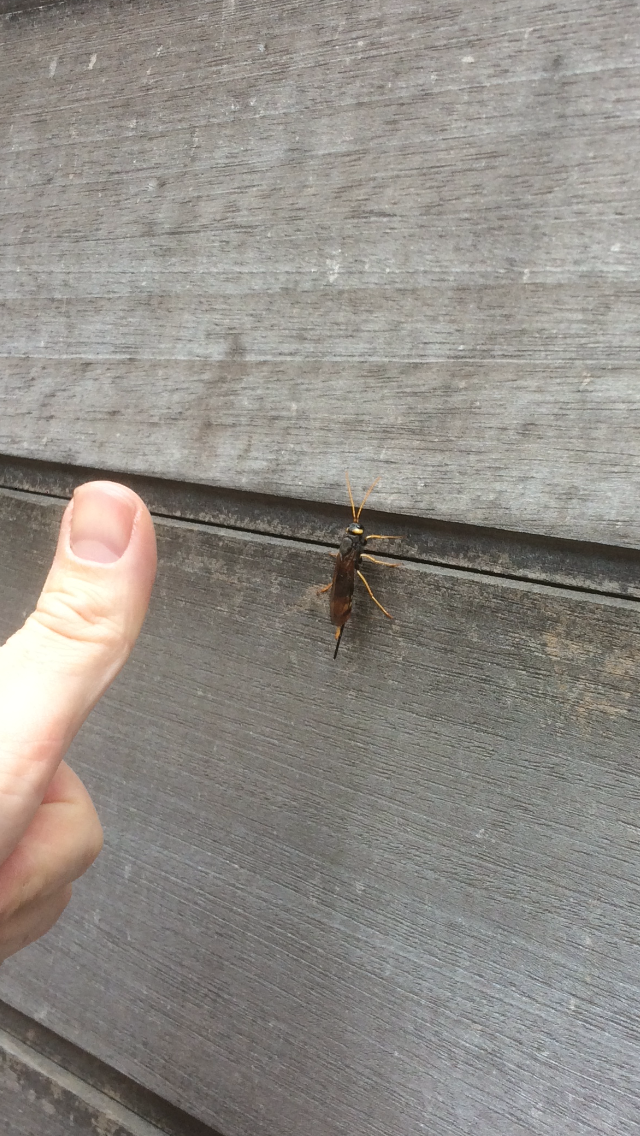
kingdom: Animalia
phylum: Arthropoda
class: Insecta
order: Hymenoptera
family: Siricidae
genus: Urocerus
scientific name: Urocerus gigas
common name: Giant woodwasp
